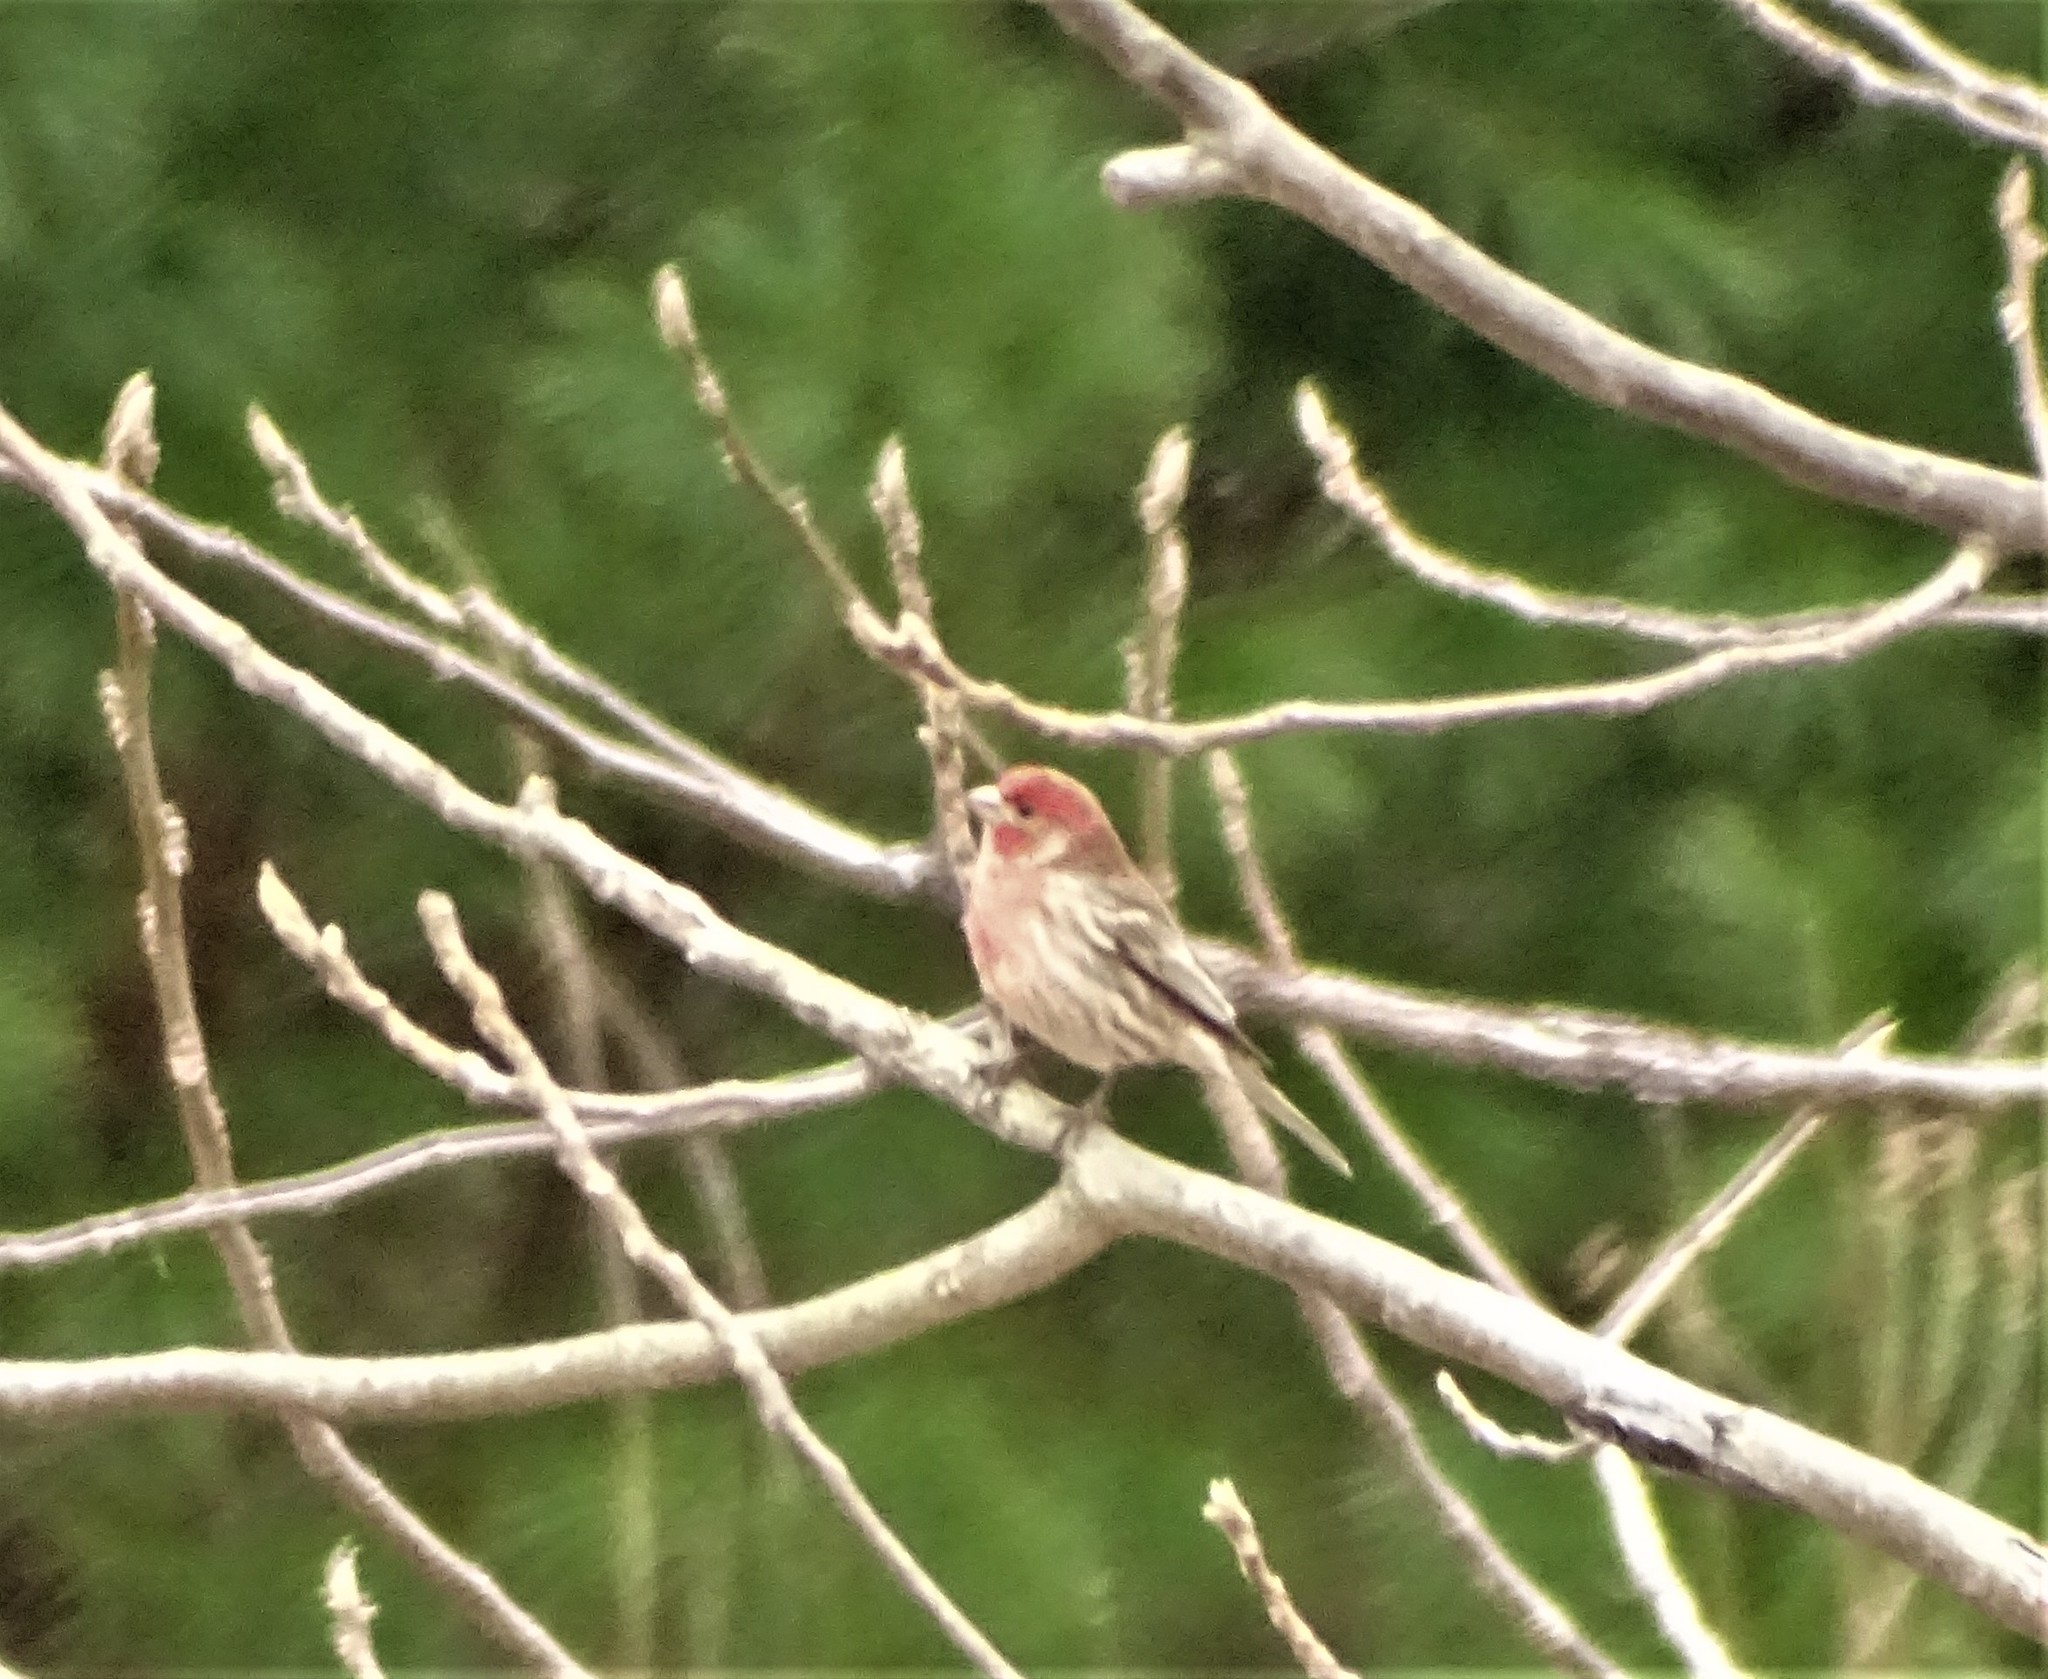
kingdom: Animalia
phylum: Chordata
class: Aves
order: Passeriformes
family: Fringillidae
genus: Haemorhous
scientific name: Haemorhous mexicanus
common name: House finch
